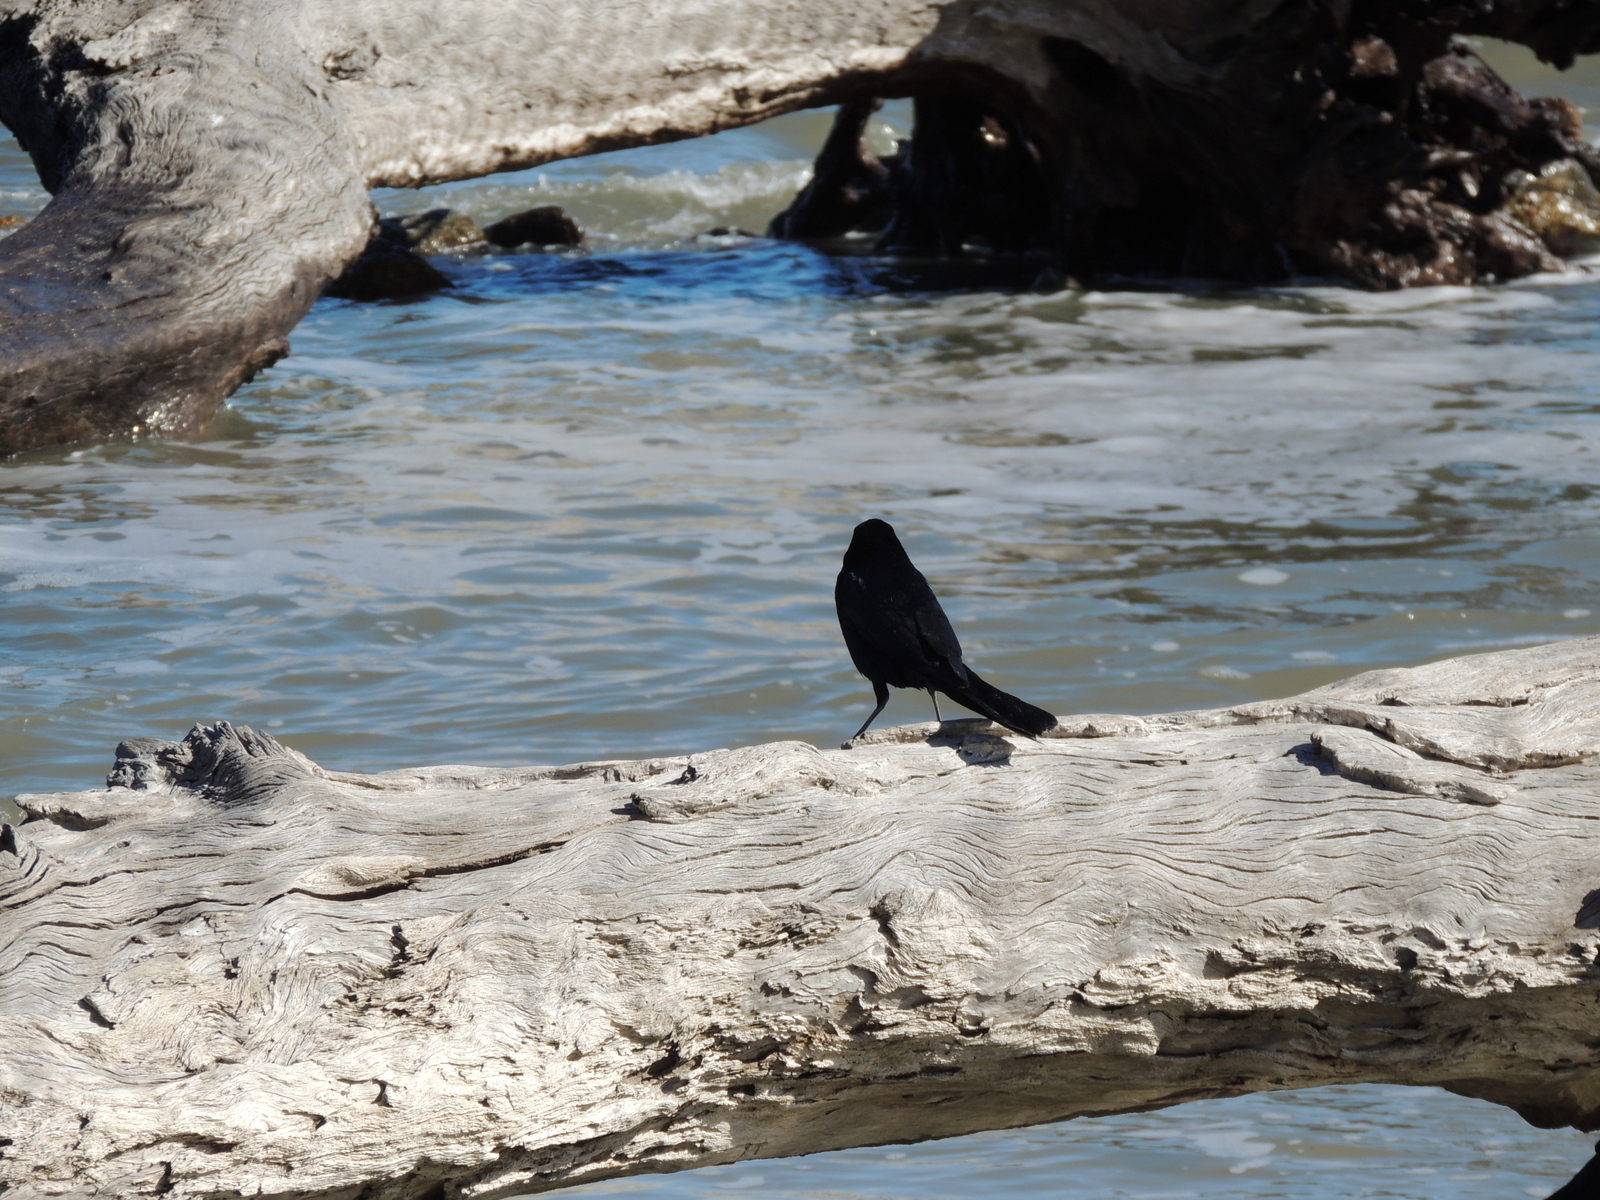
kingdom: Animalia
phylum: Chordata
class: Aves
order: Passeriformes
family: Icteridae
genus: Quiscalus
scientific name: Quiscalus major
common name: Boat-tailed grackle
